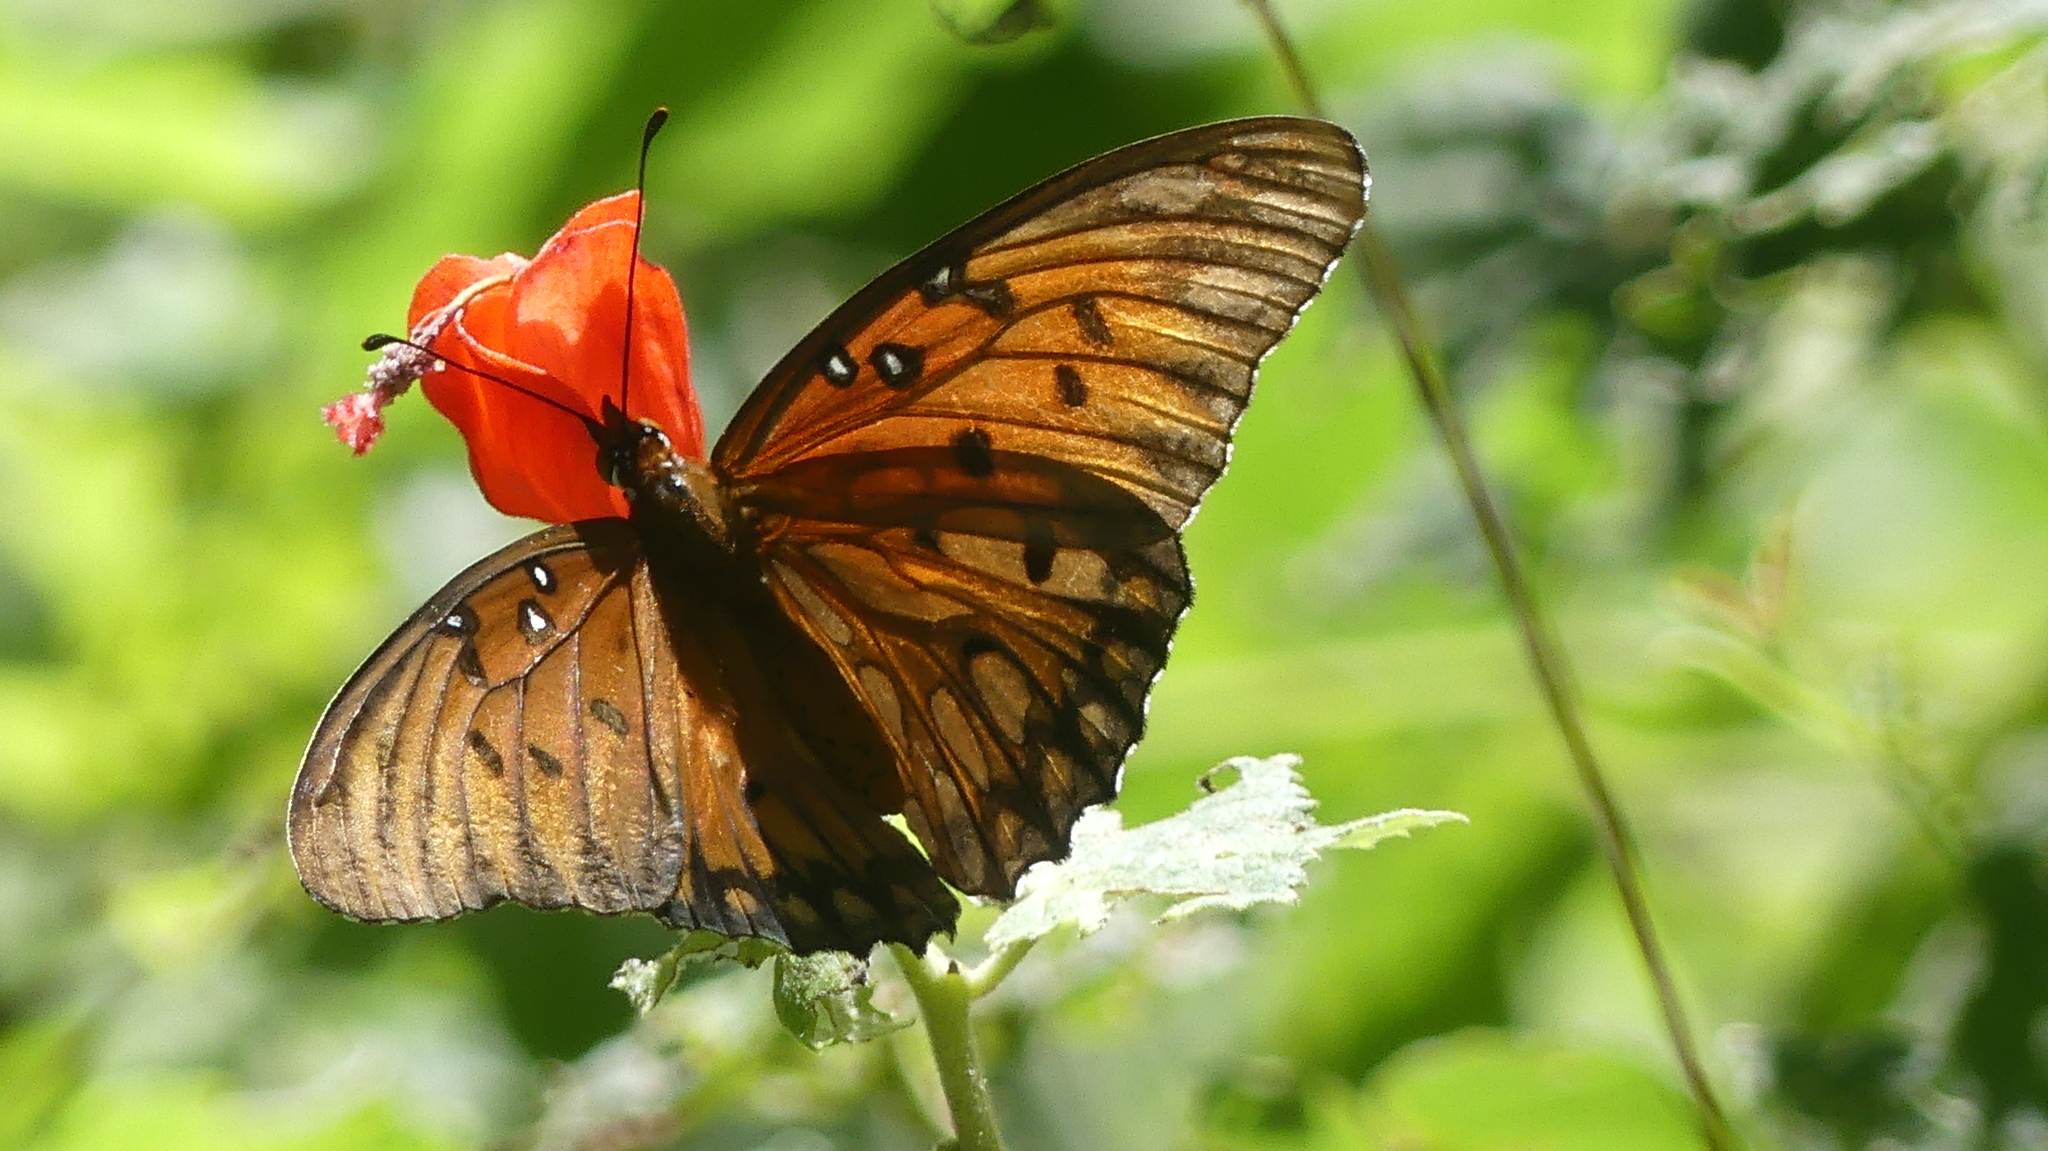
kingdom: Animalia
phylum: Arthropoda
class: Insecta
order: Lepidoptera
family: Nymphalidae
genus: Dione
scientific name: Dione vanillae
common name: Gulf fritillary
